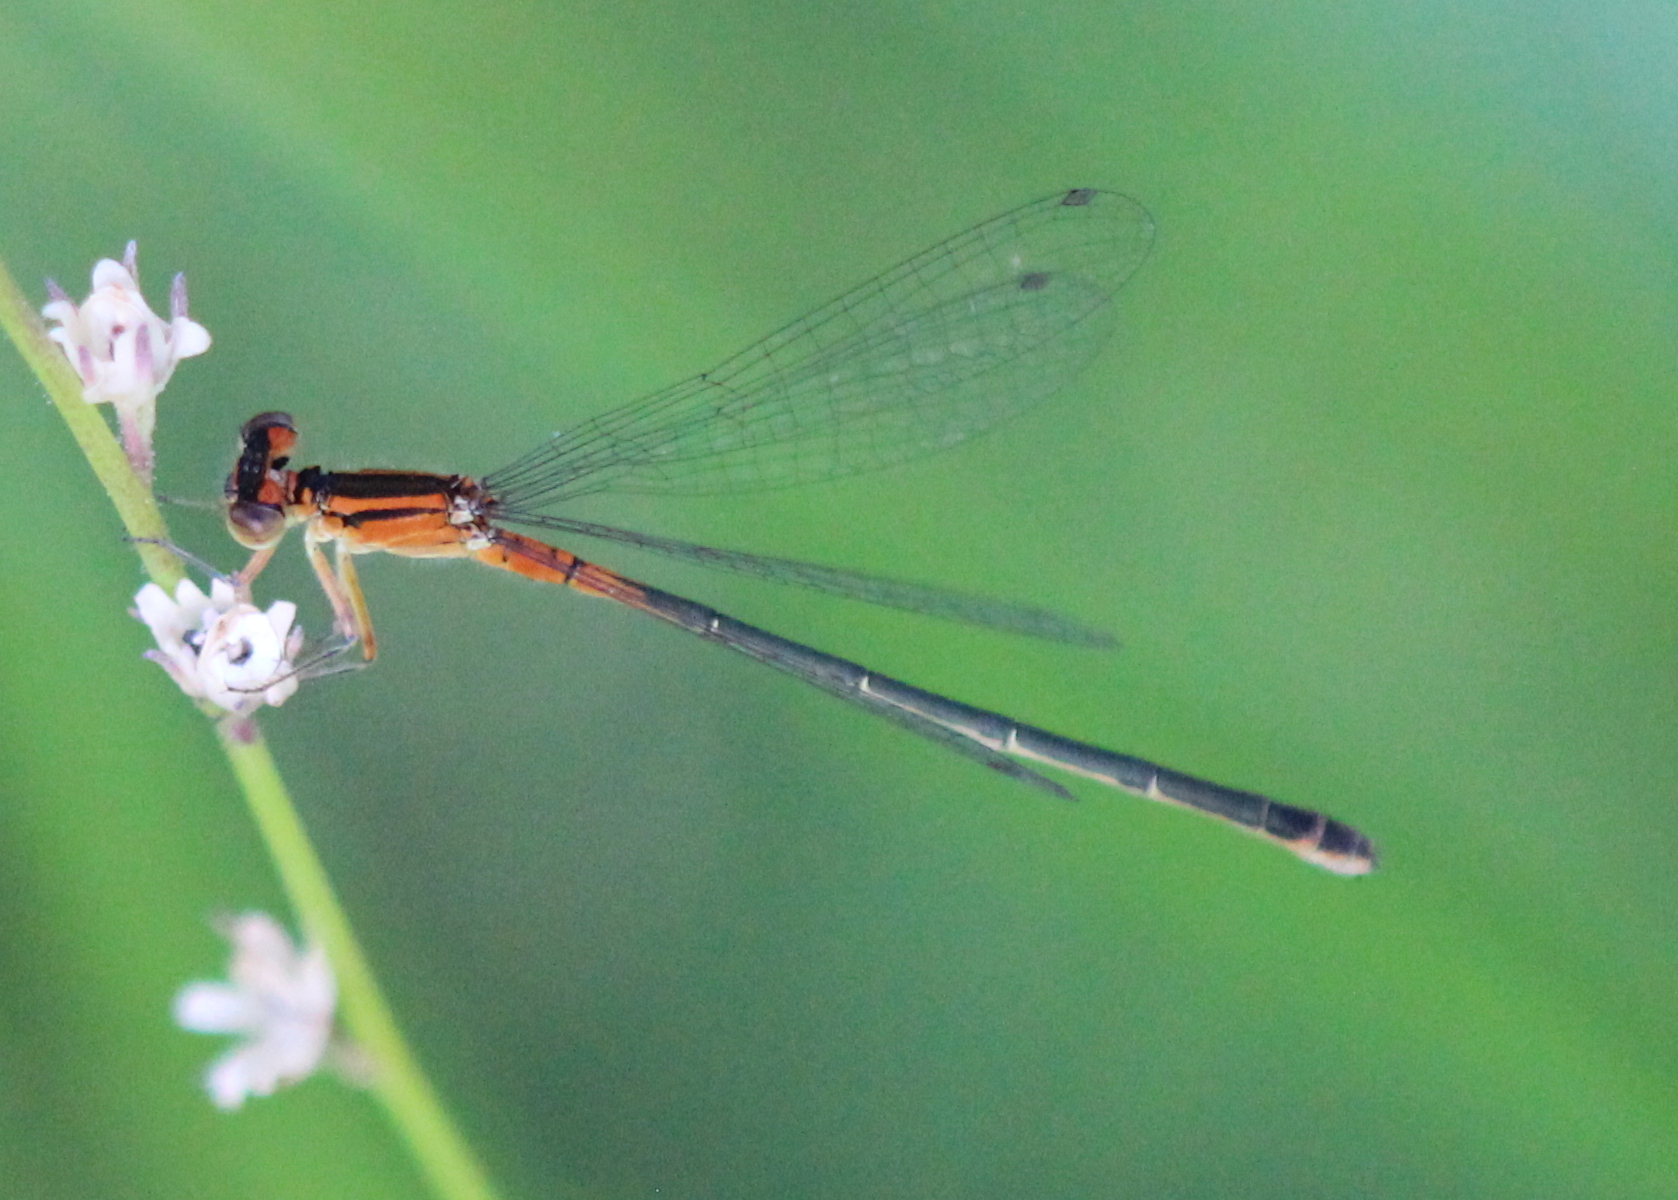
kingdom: Animalia
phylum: Arthropoda
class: Insecta
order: Odonata
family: Coenagrionidae
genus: Ischnura
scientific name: Ischnura verticalis
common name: Eastern forktail
